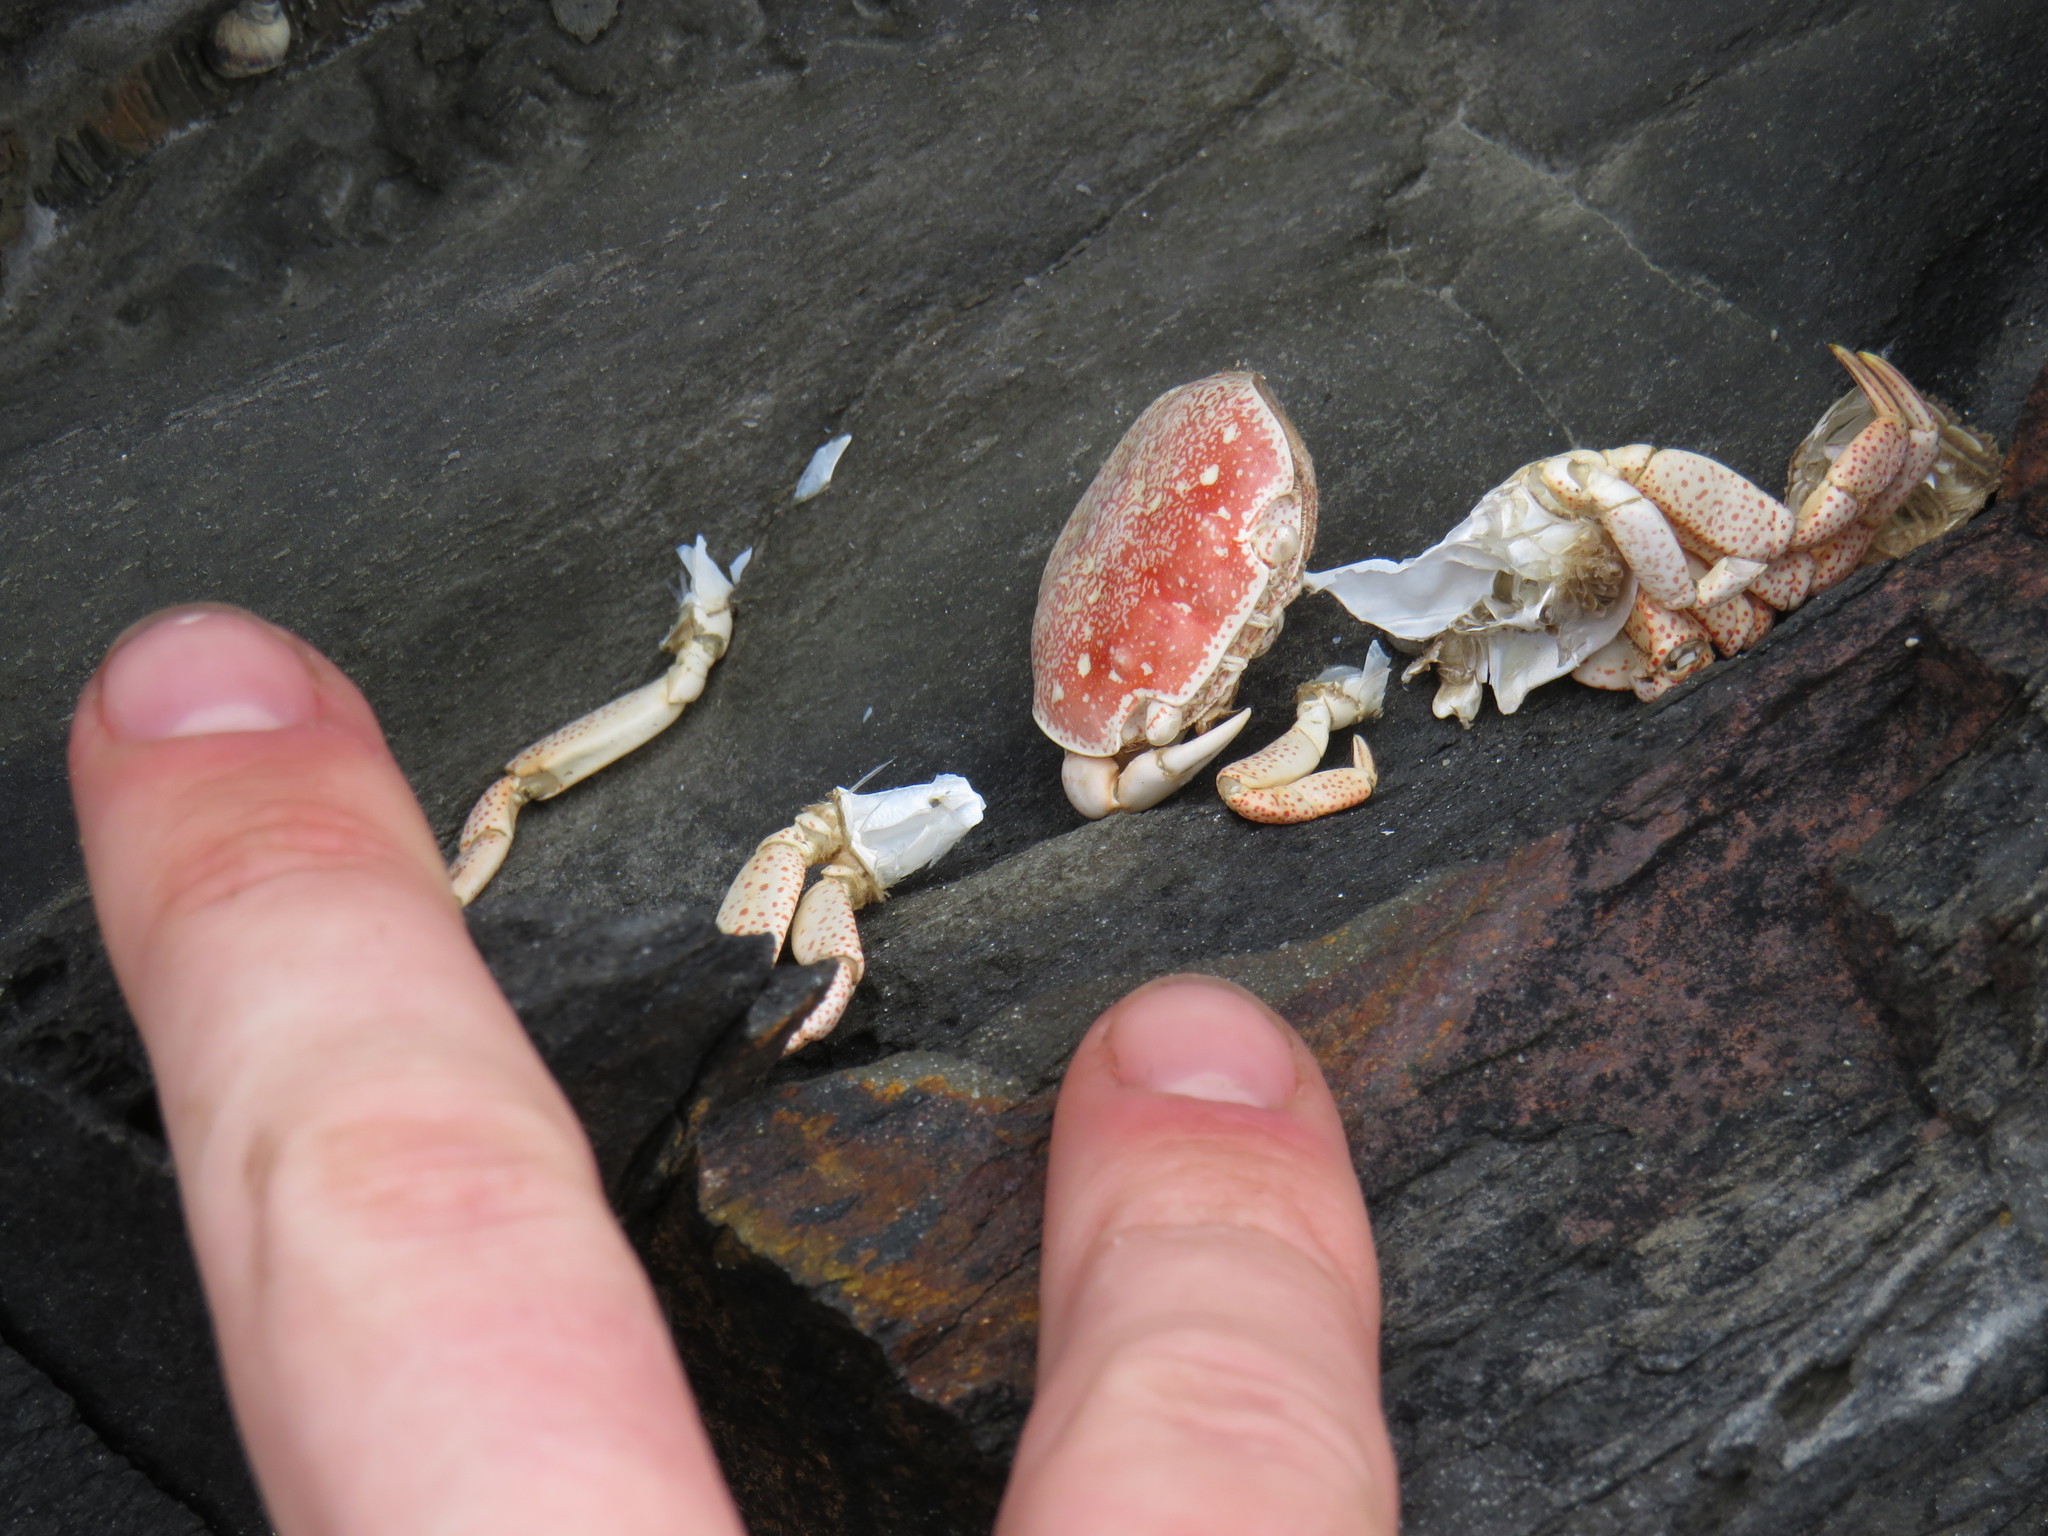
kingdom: Animalia
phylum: Arthropoda
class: Malacostraca
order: Decapoda
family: Varunidae
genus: Cyclograpsus
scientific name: Cyclograpsus punctatus
